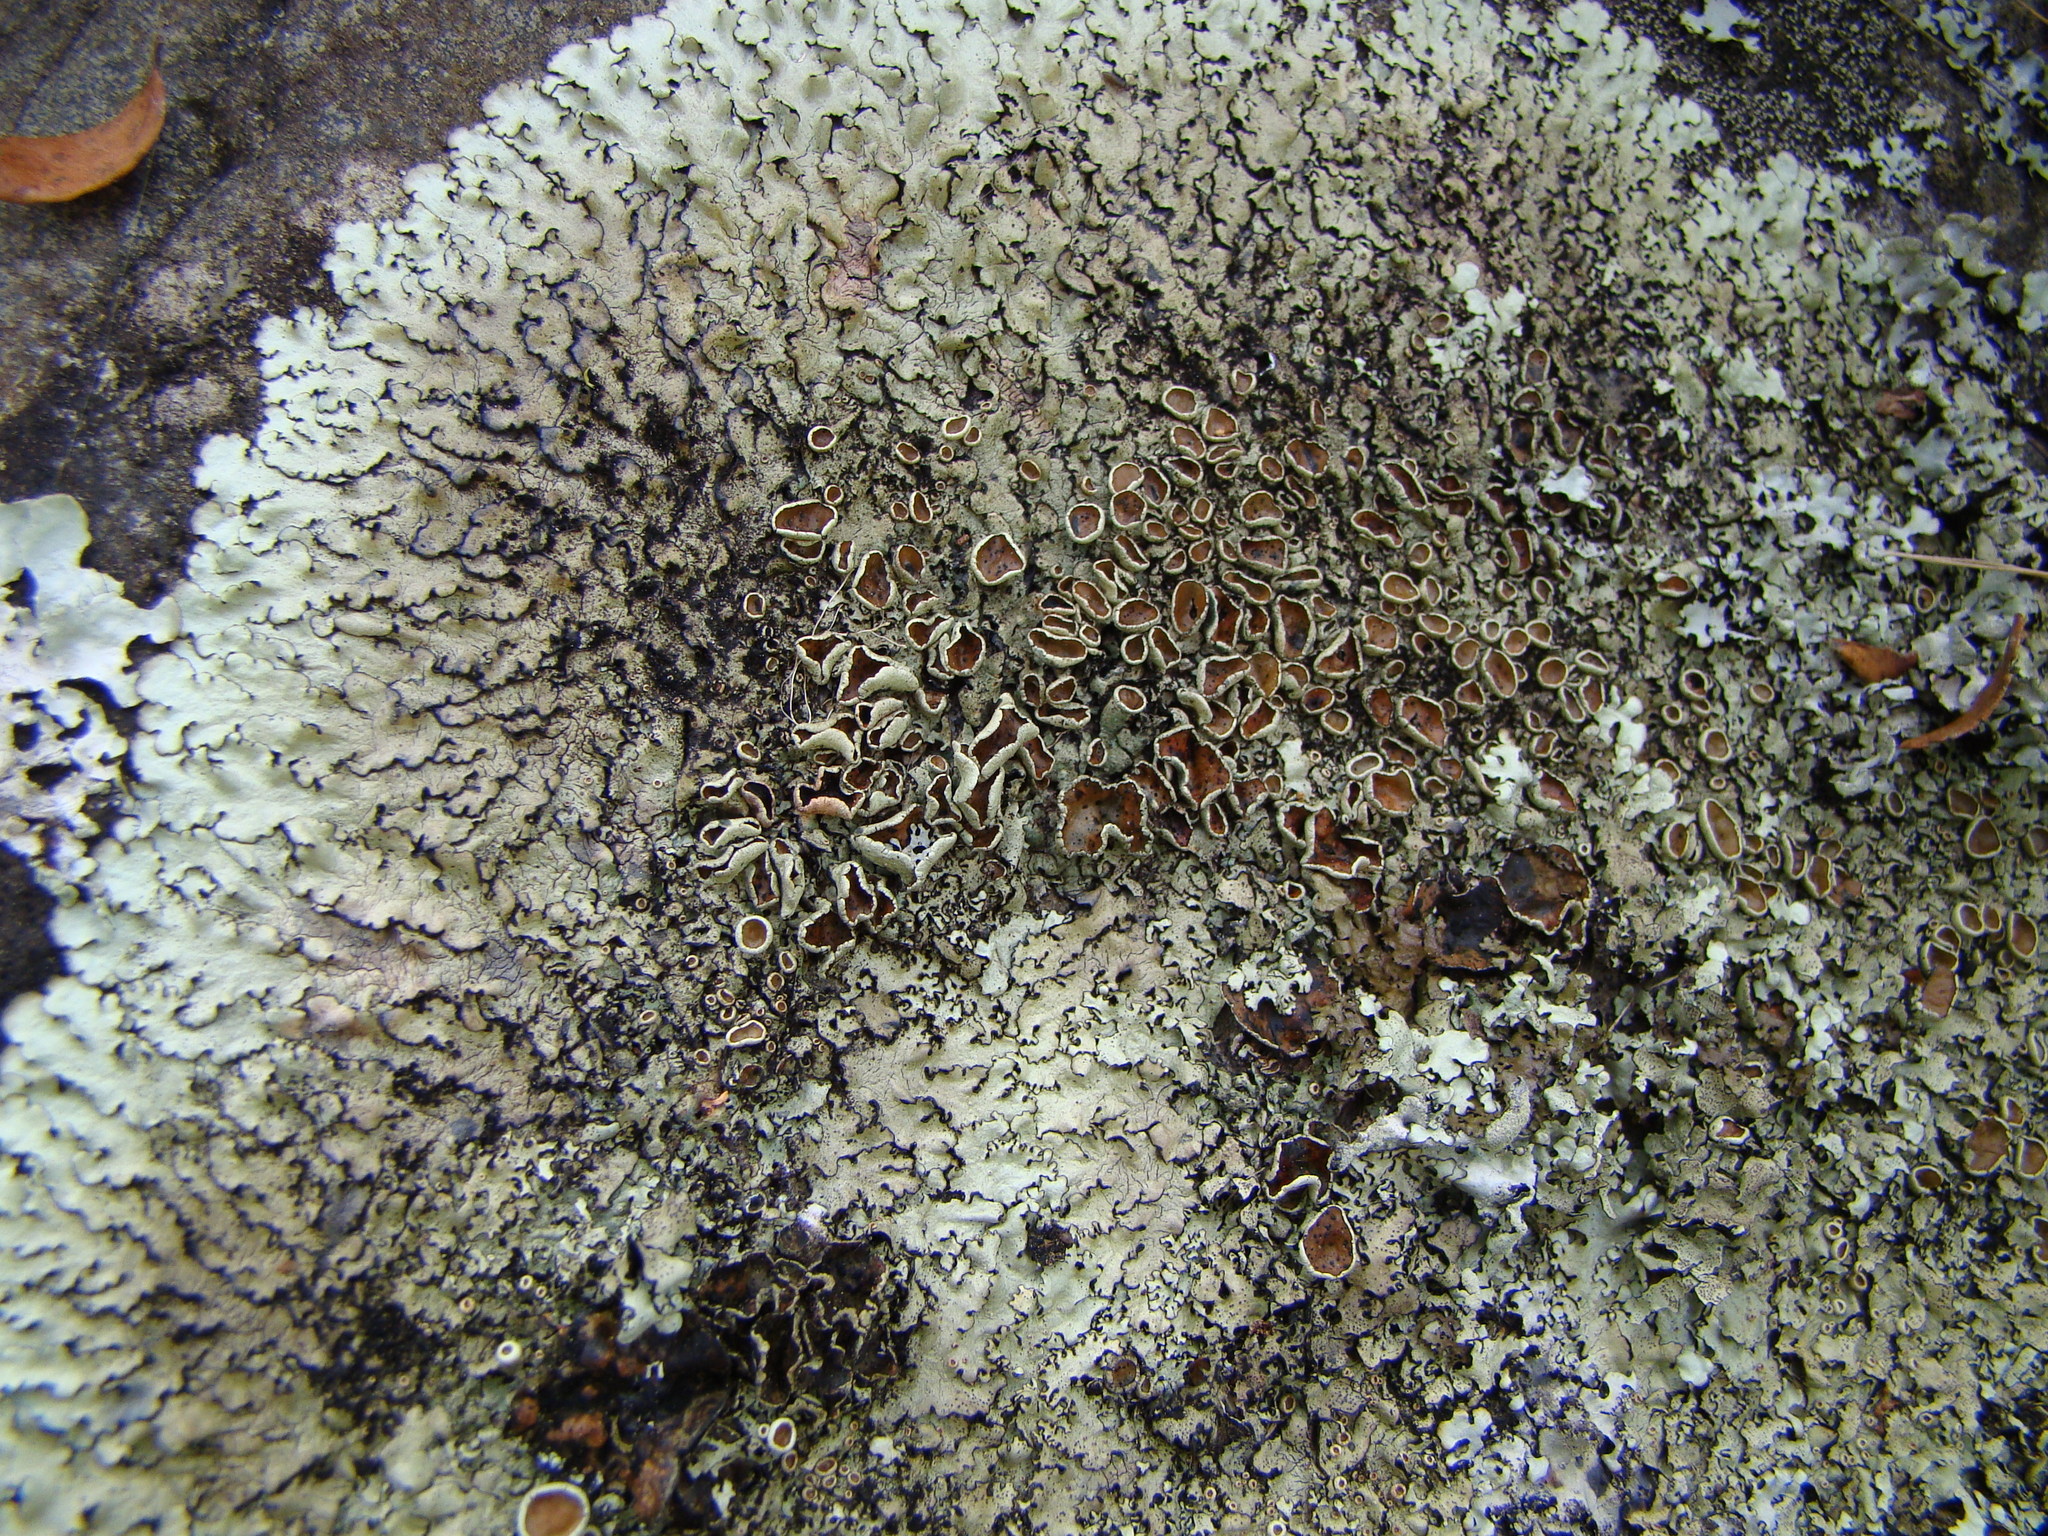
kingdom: Fungi
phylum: Ascomycota
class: Lecanoromycetes
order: Lecanorales
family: Parmeliaceae
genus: Xanthoparmelia
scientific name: Xanthoparmelia tasmanica
